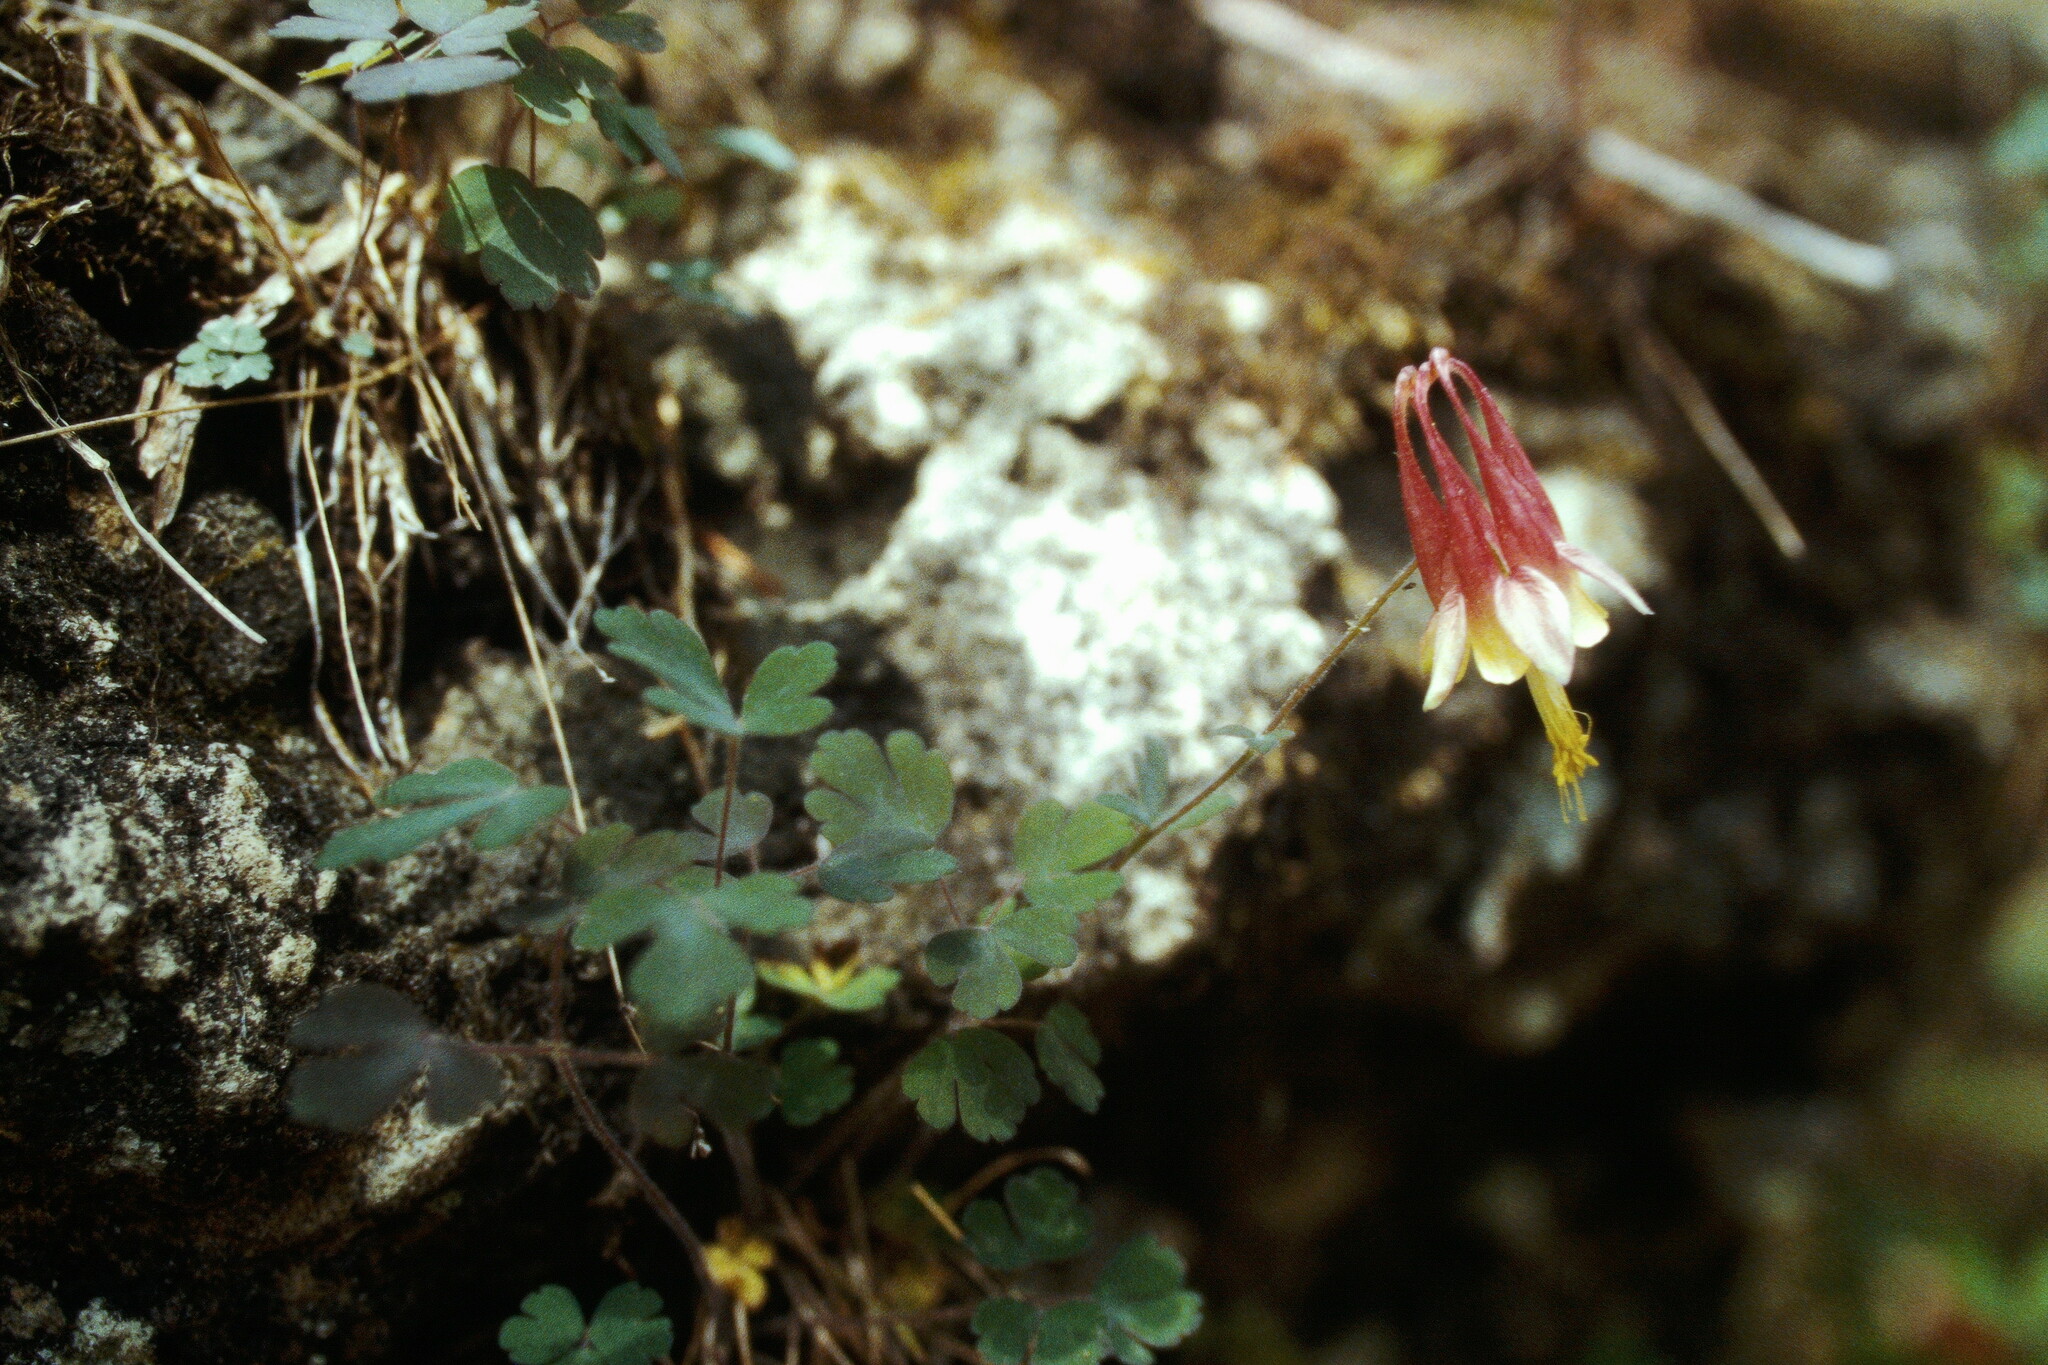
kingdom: Plantae
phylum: Tracheophyta
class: Magnoliopsida
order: Ranunculales
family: Ranunculaceae
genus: Aquilegia
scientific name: Aquilegia canadensis
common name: American columbine
